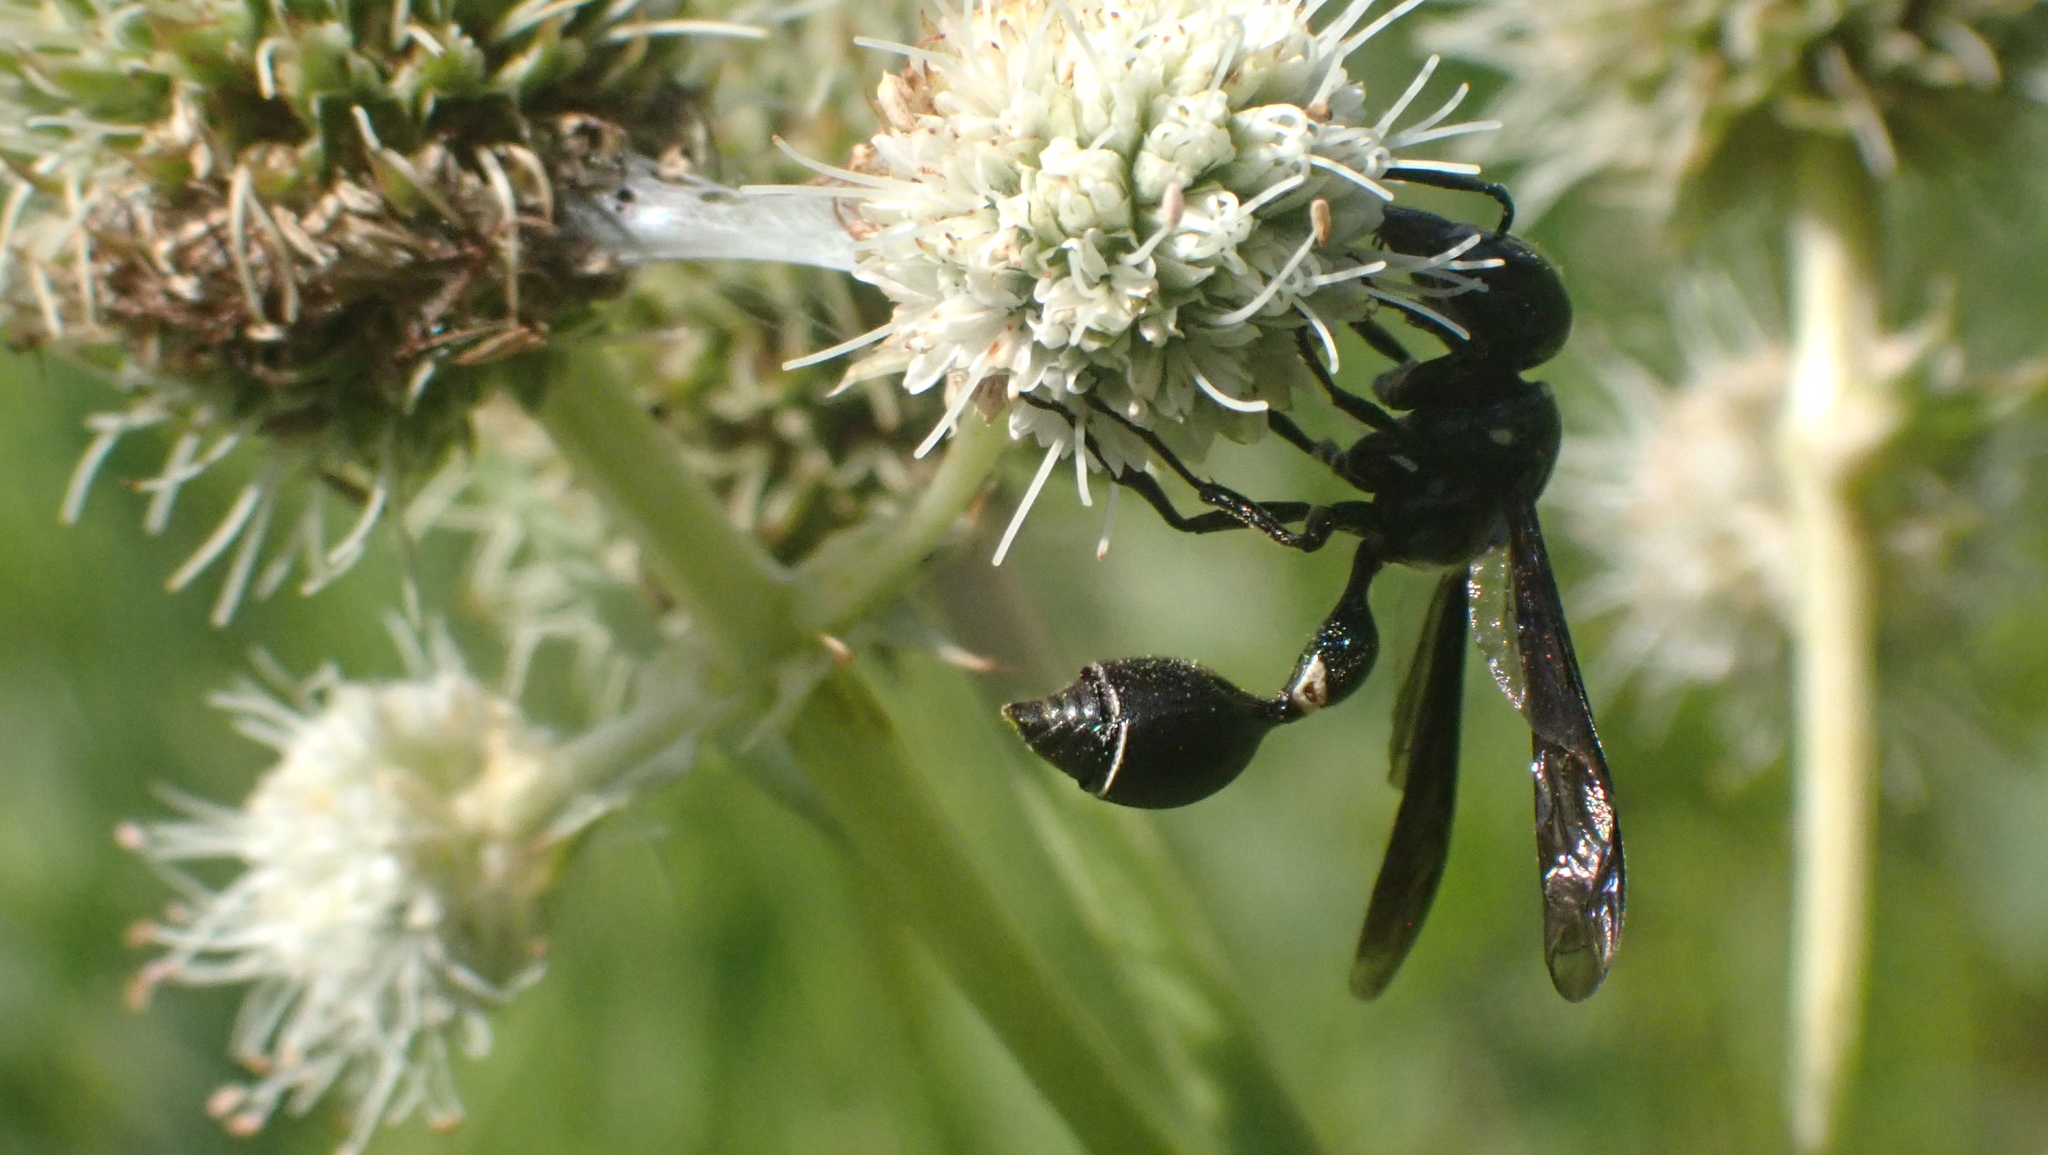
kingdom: Animalia
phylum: Arthropoda
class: Insecta
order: Hymenoptera
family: Eumenidae
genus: Zethus
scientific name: Zethus spinipes
